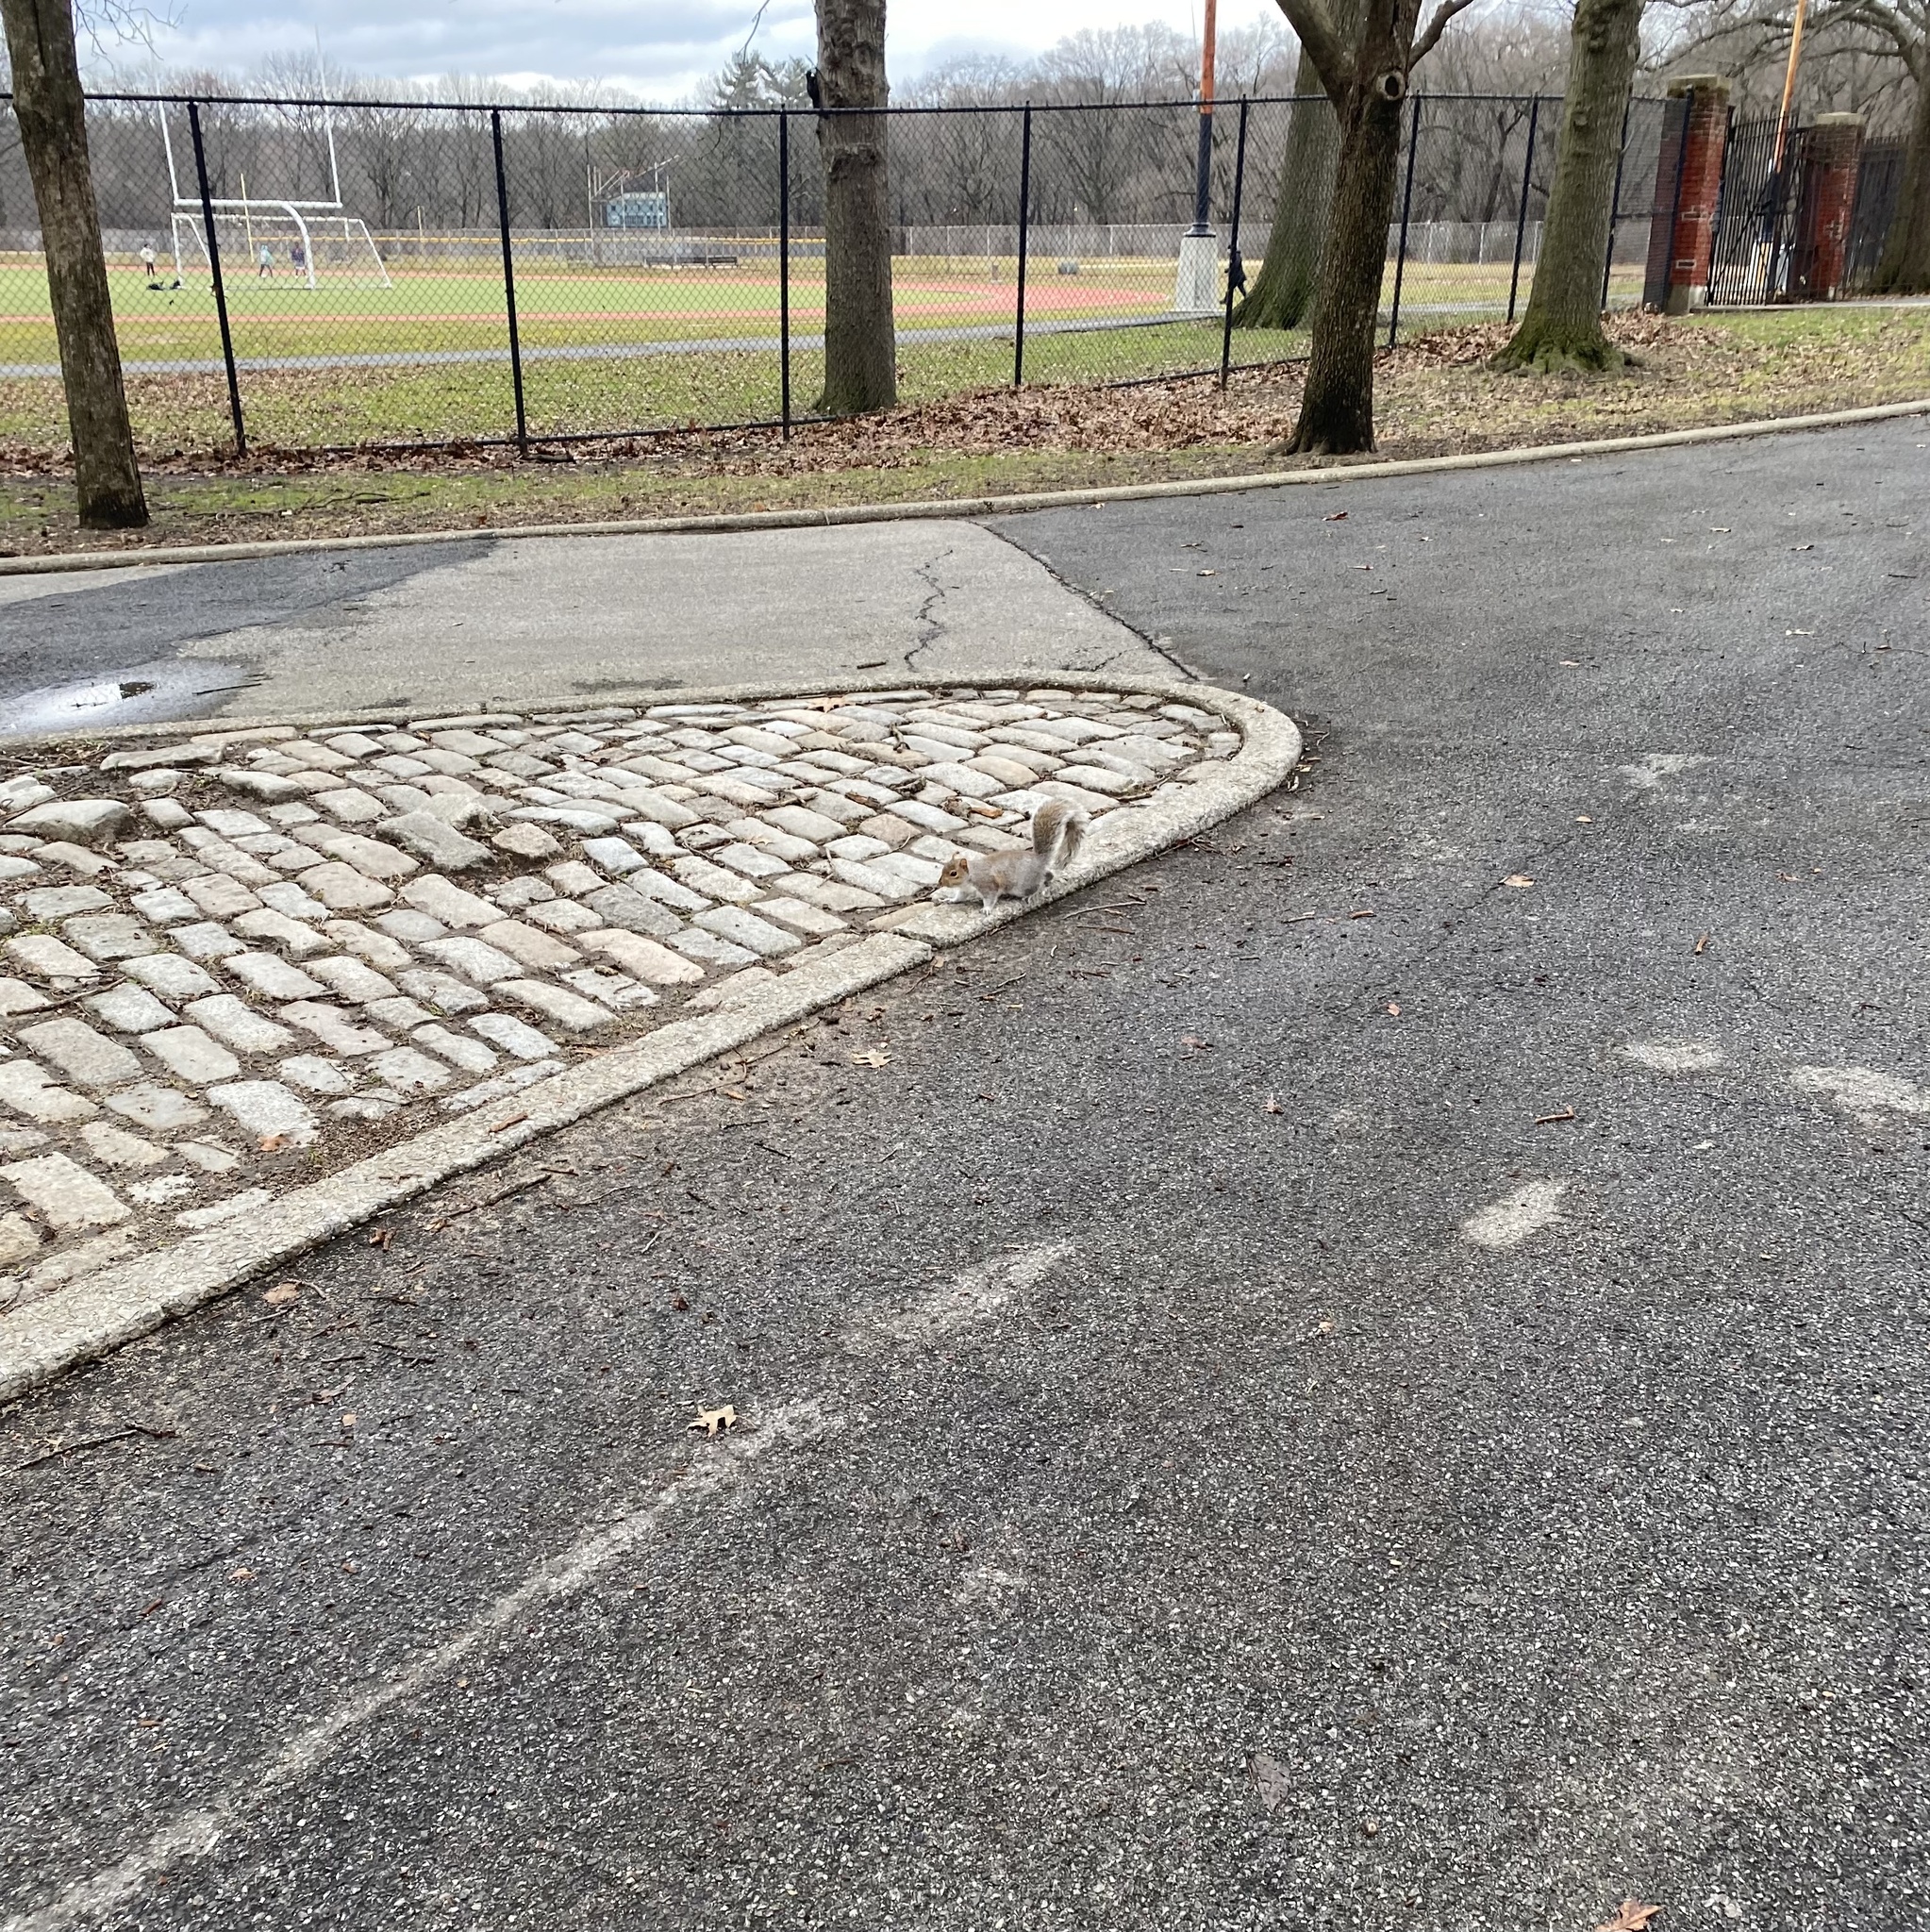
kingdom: Animalia
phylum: Chordata
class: Mammalia
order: Rodentia
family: Sciuridae
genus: Sciurus
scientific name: Sciurus carolinensis
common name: Eastern gray squirrel
